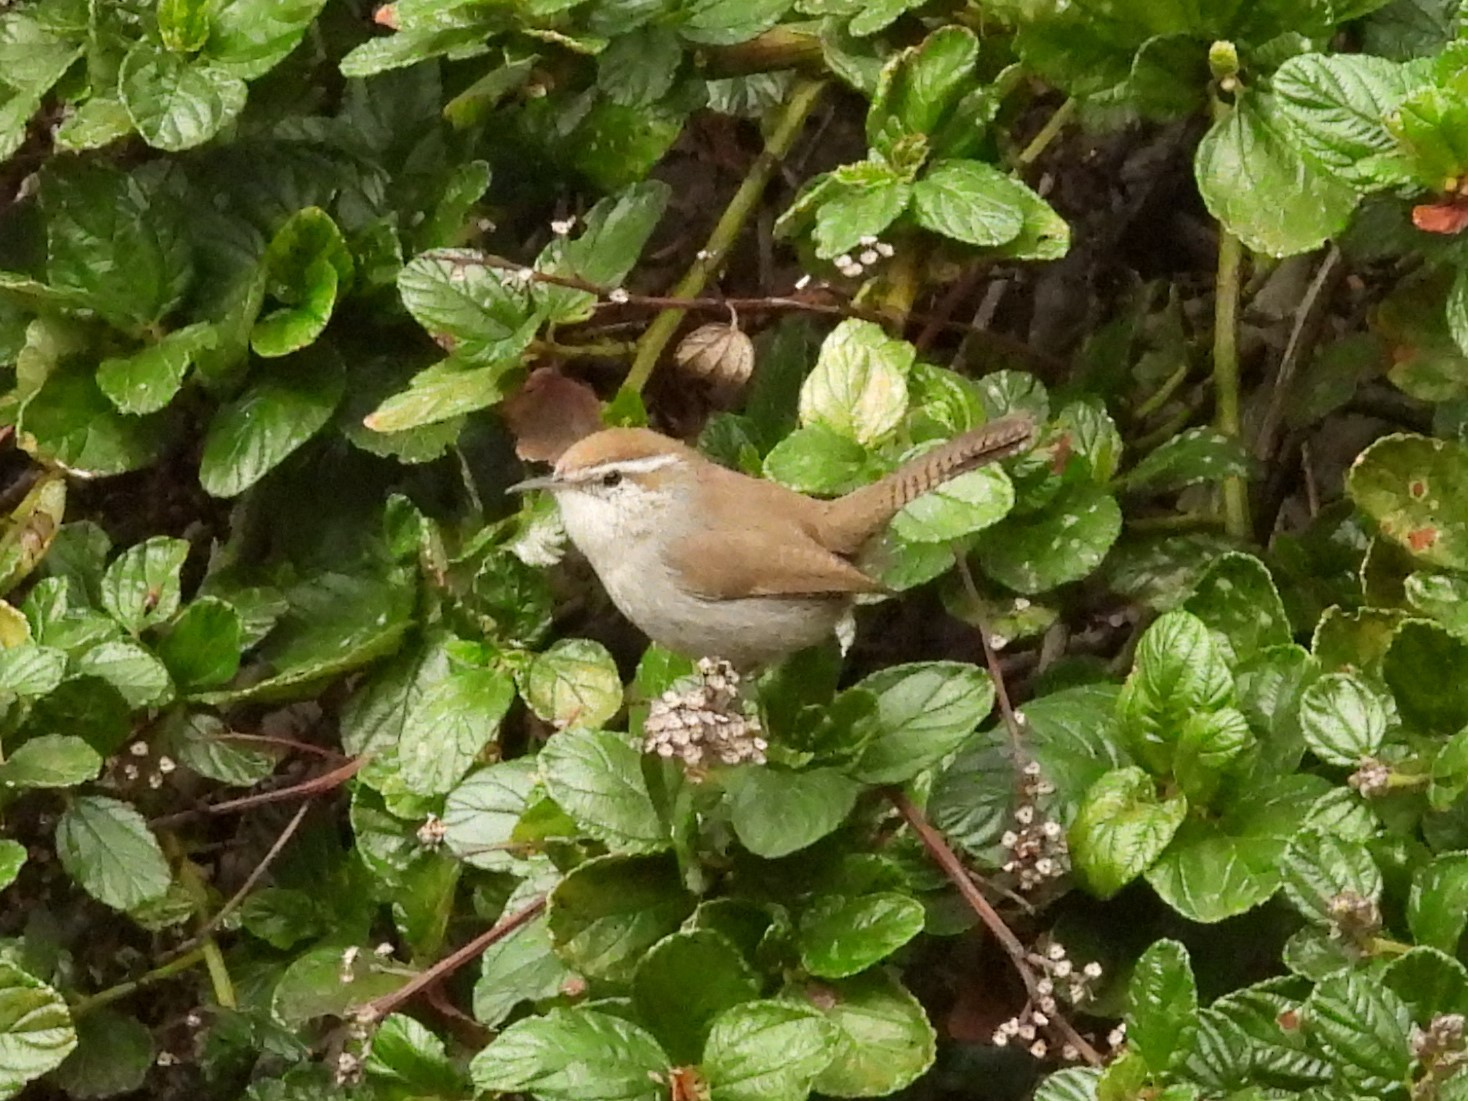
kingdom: Animalia
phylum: Chordata
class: Aves
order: Passeriformes
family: Troglodytidae
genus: Thryomanes
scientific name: Thryomanes bewickii
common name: Bewick's wren
